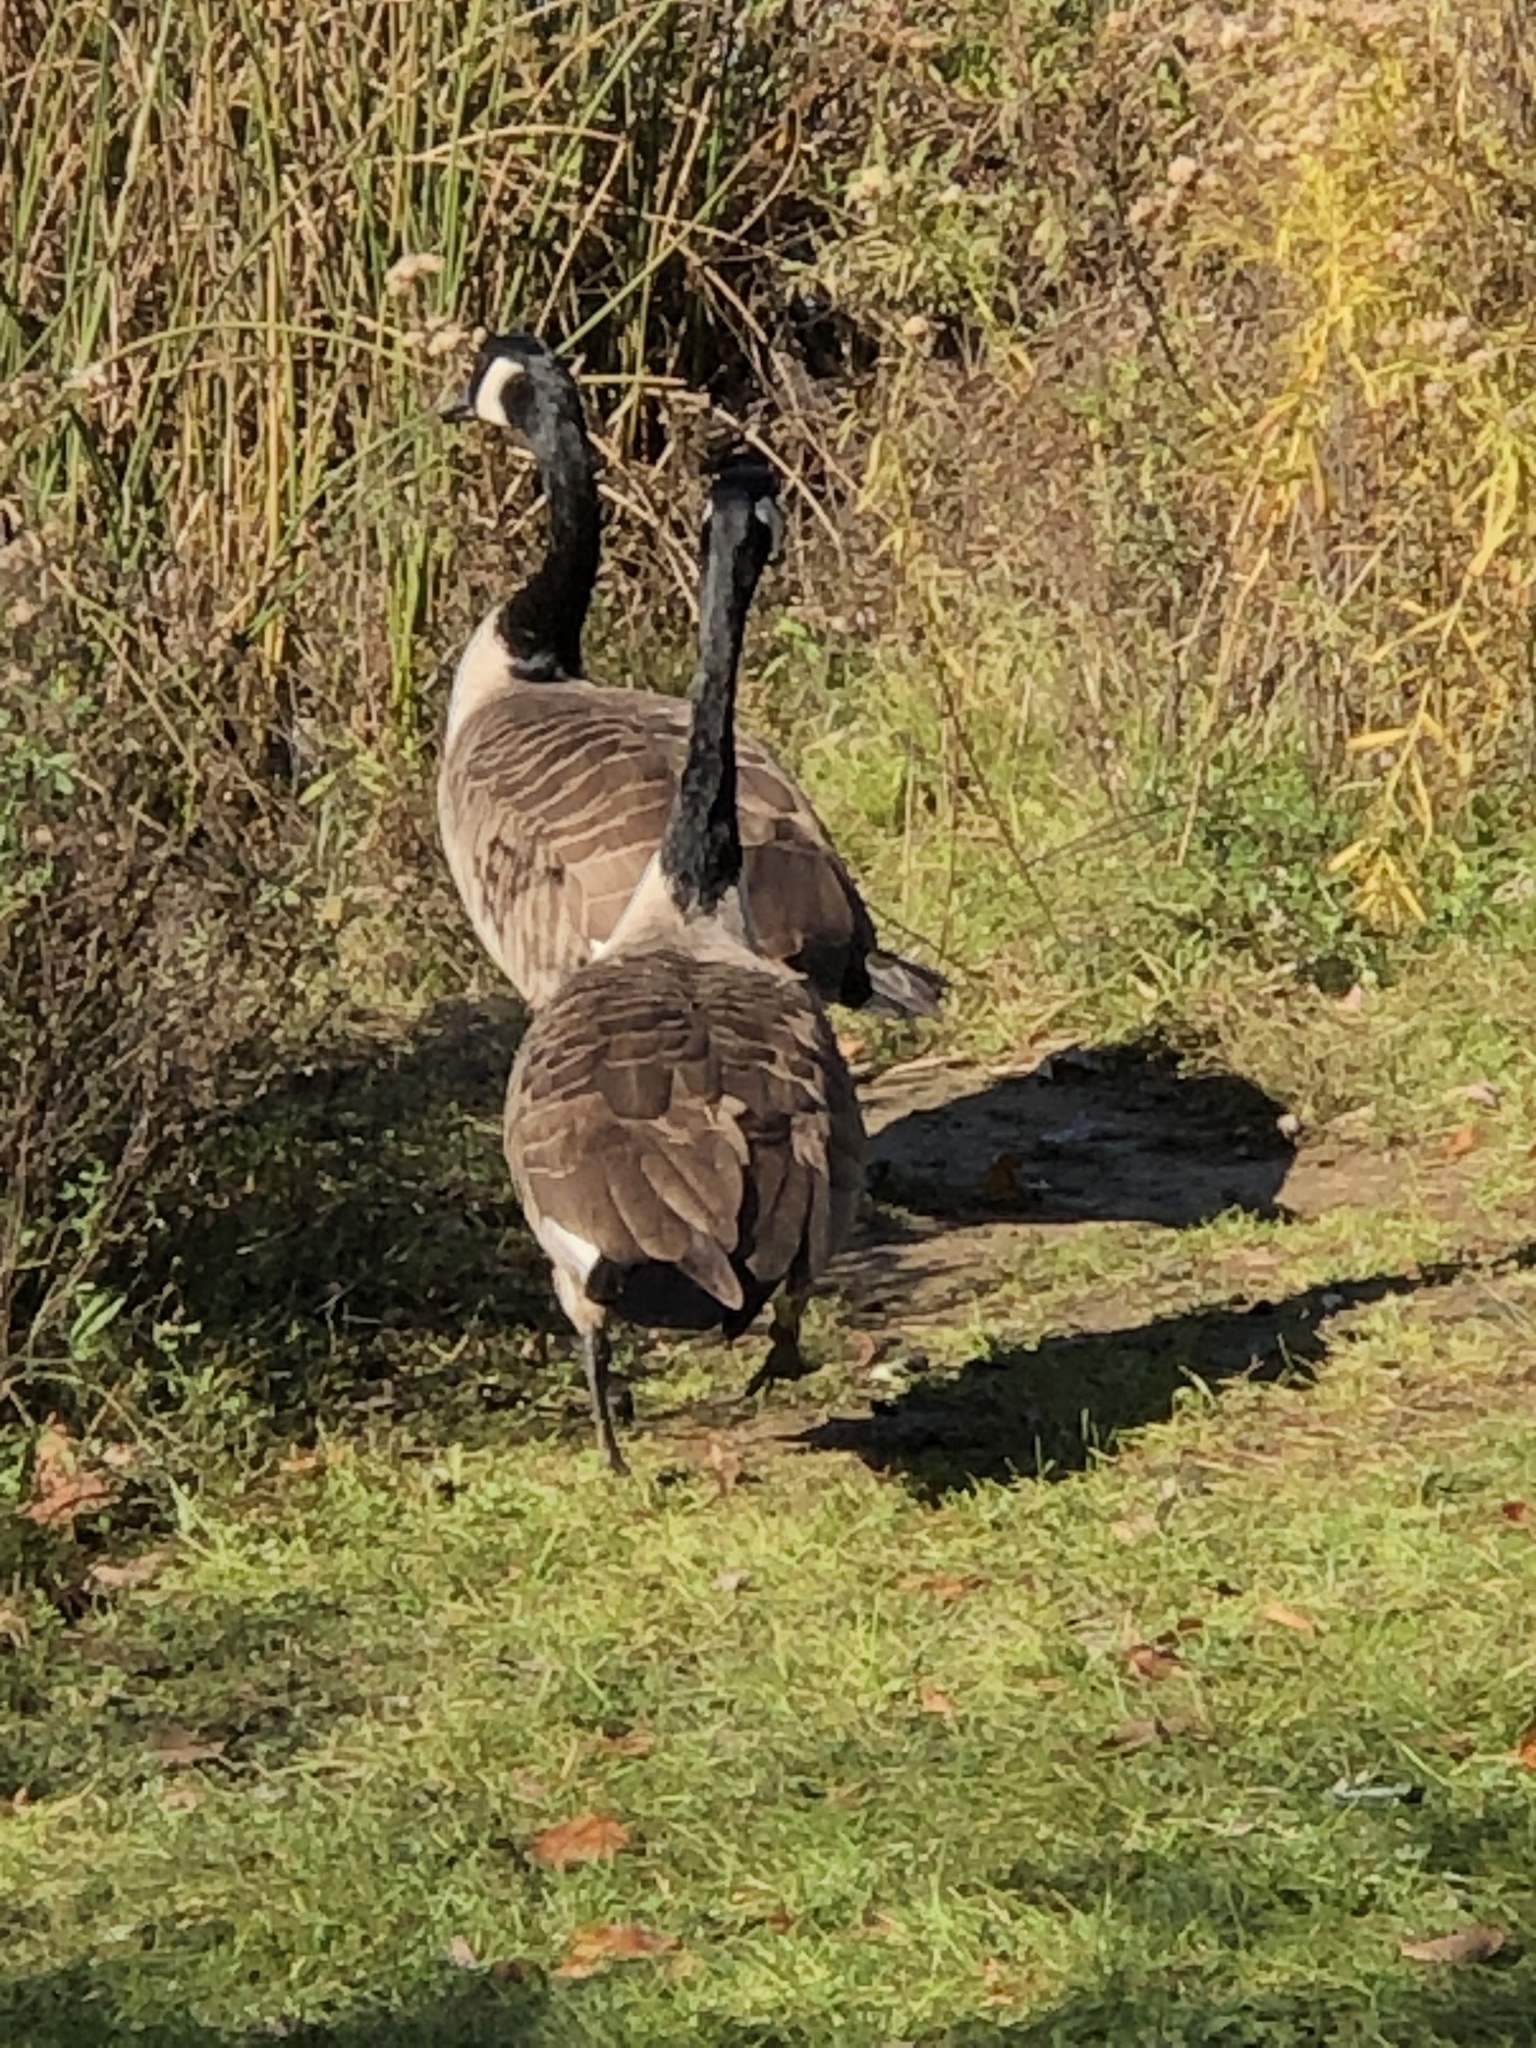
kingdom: Animalia
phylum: Chordata
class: Aves
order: Anseriformes
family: Anatidae
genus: Branta
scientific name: Branta canadensis
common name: Canada goose
